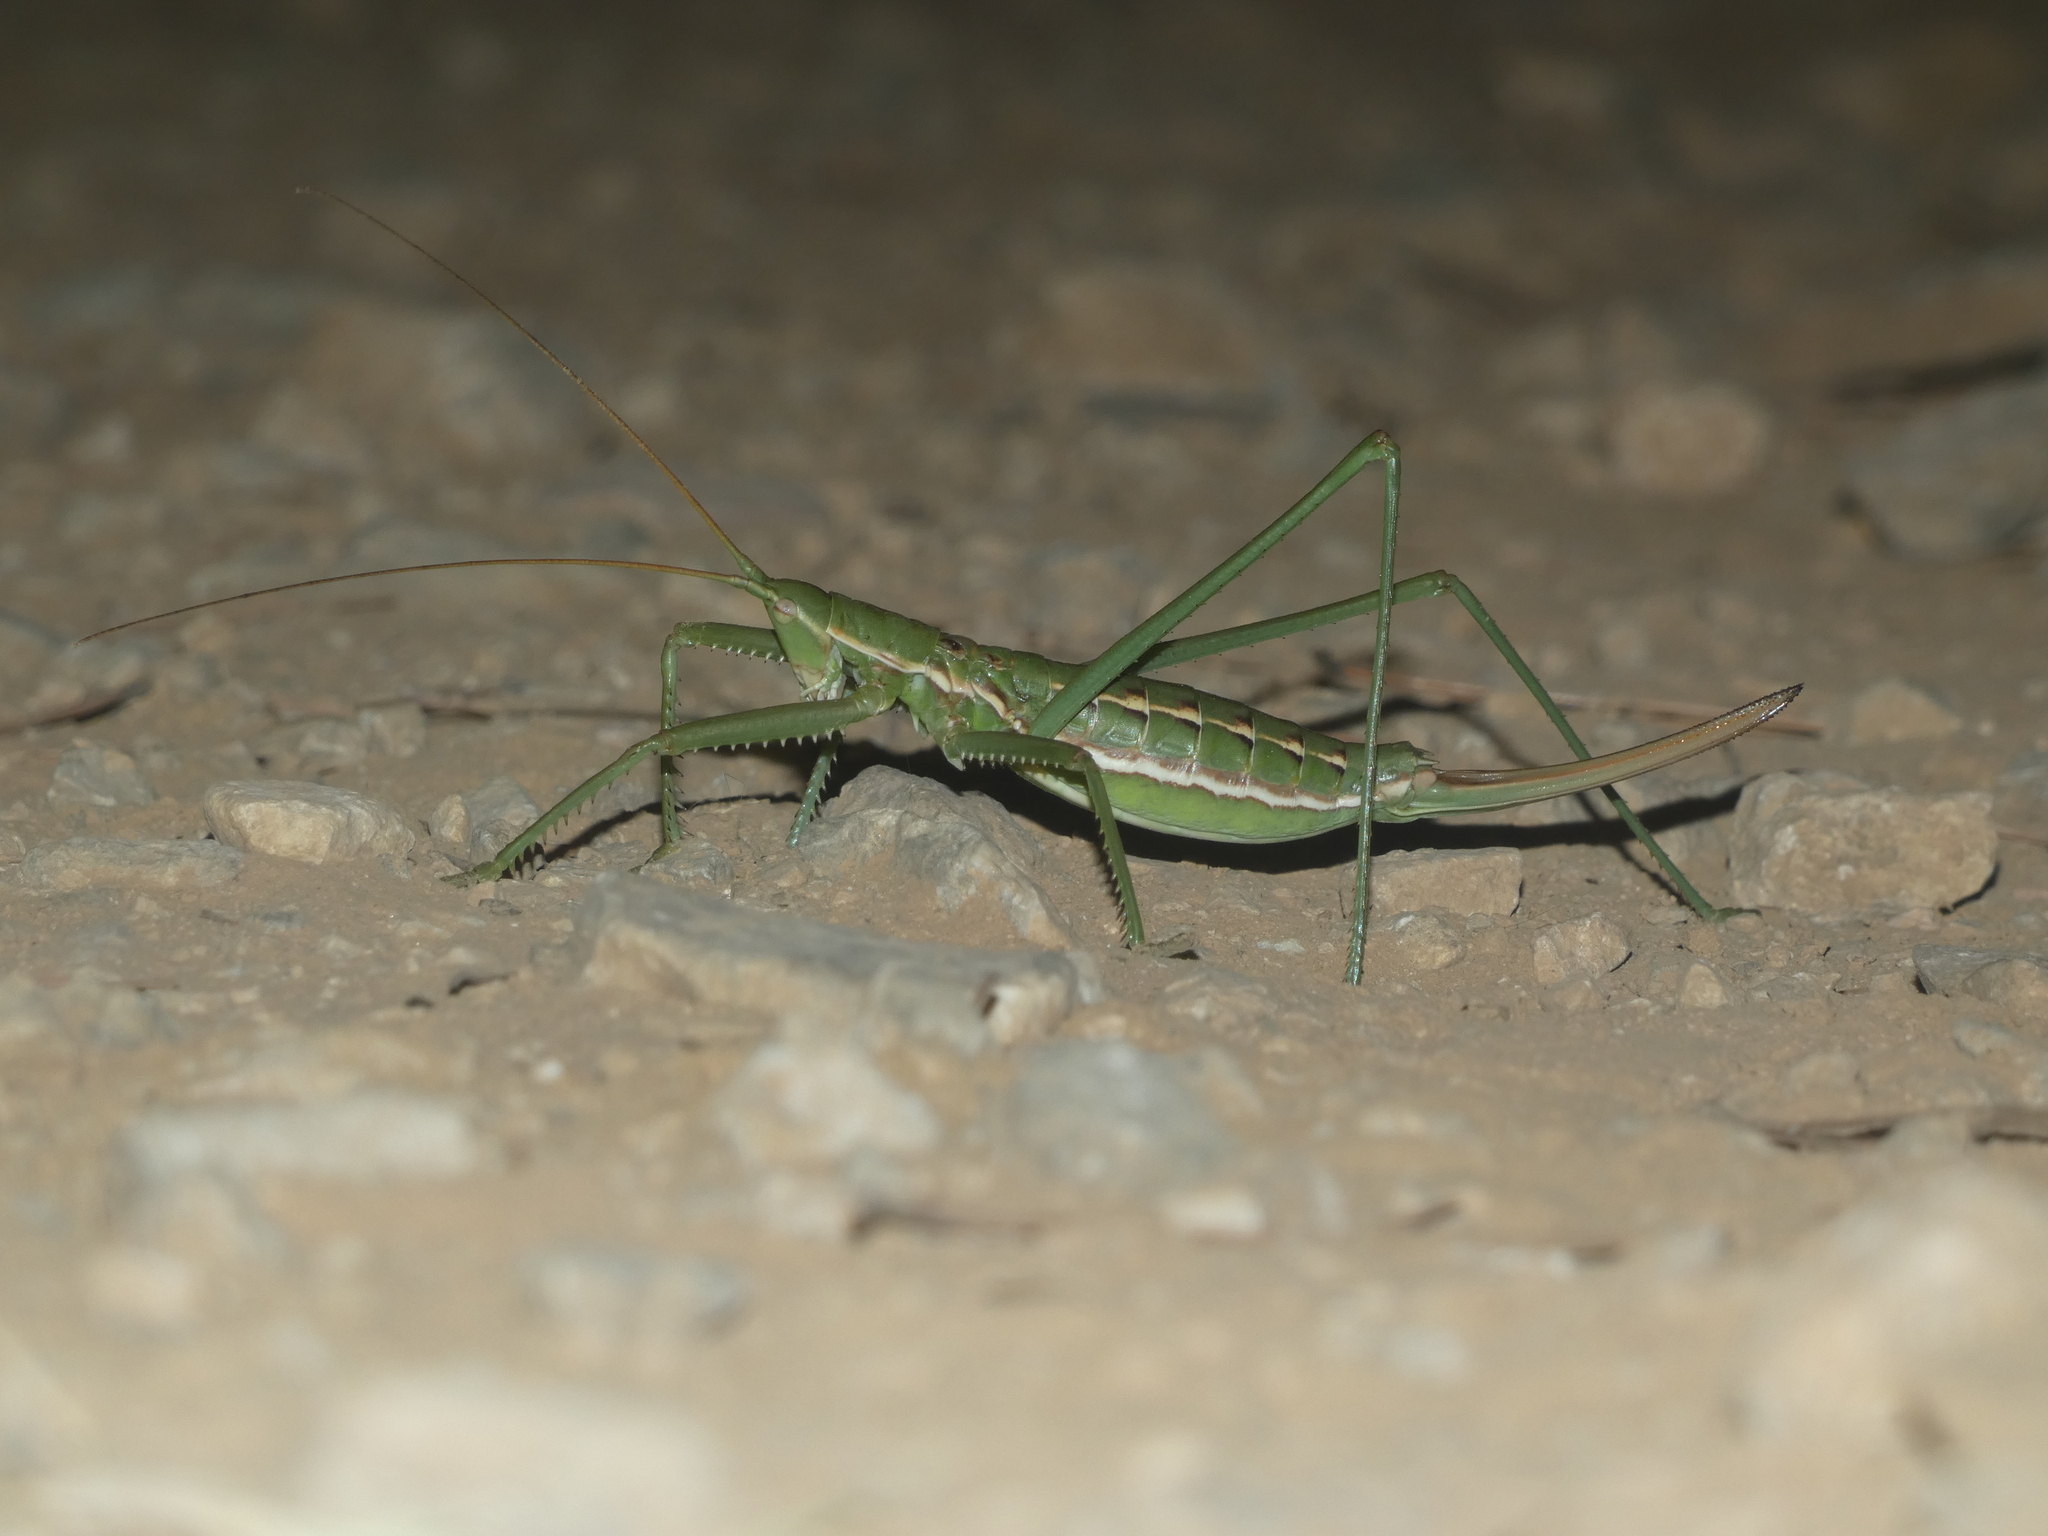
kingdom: Animalia
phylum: Arthropoda
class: Insecta
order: Orthoptera
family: Tettigoniidae
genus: Saga
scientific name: Saga pedo
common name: Common predatory bush-cricket
